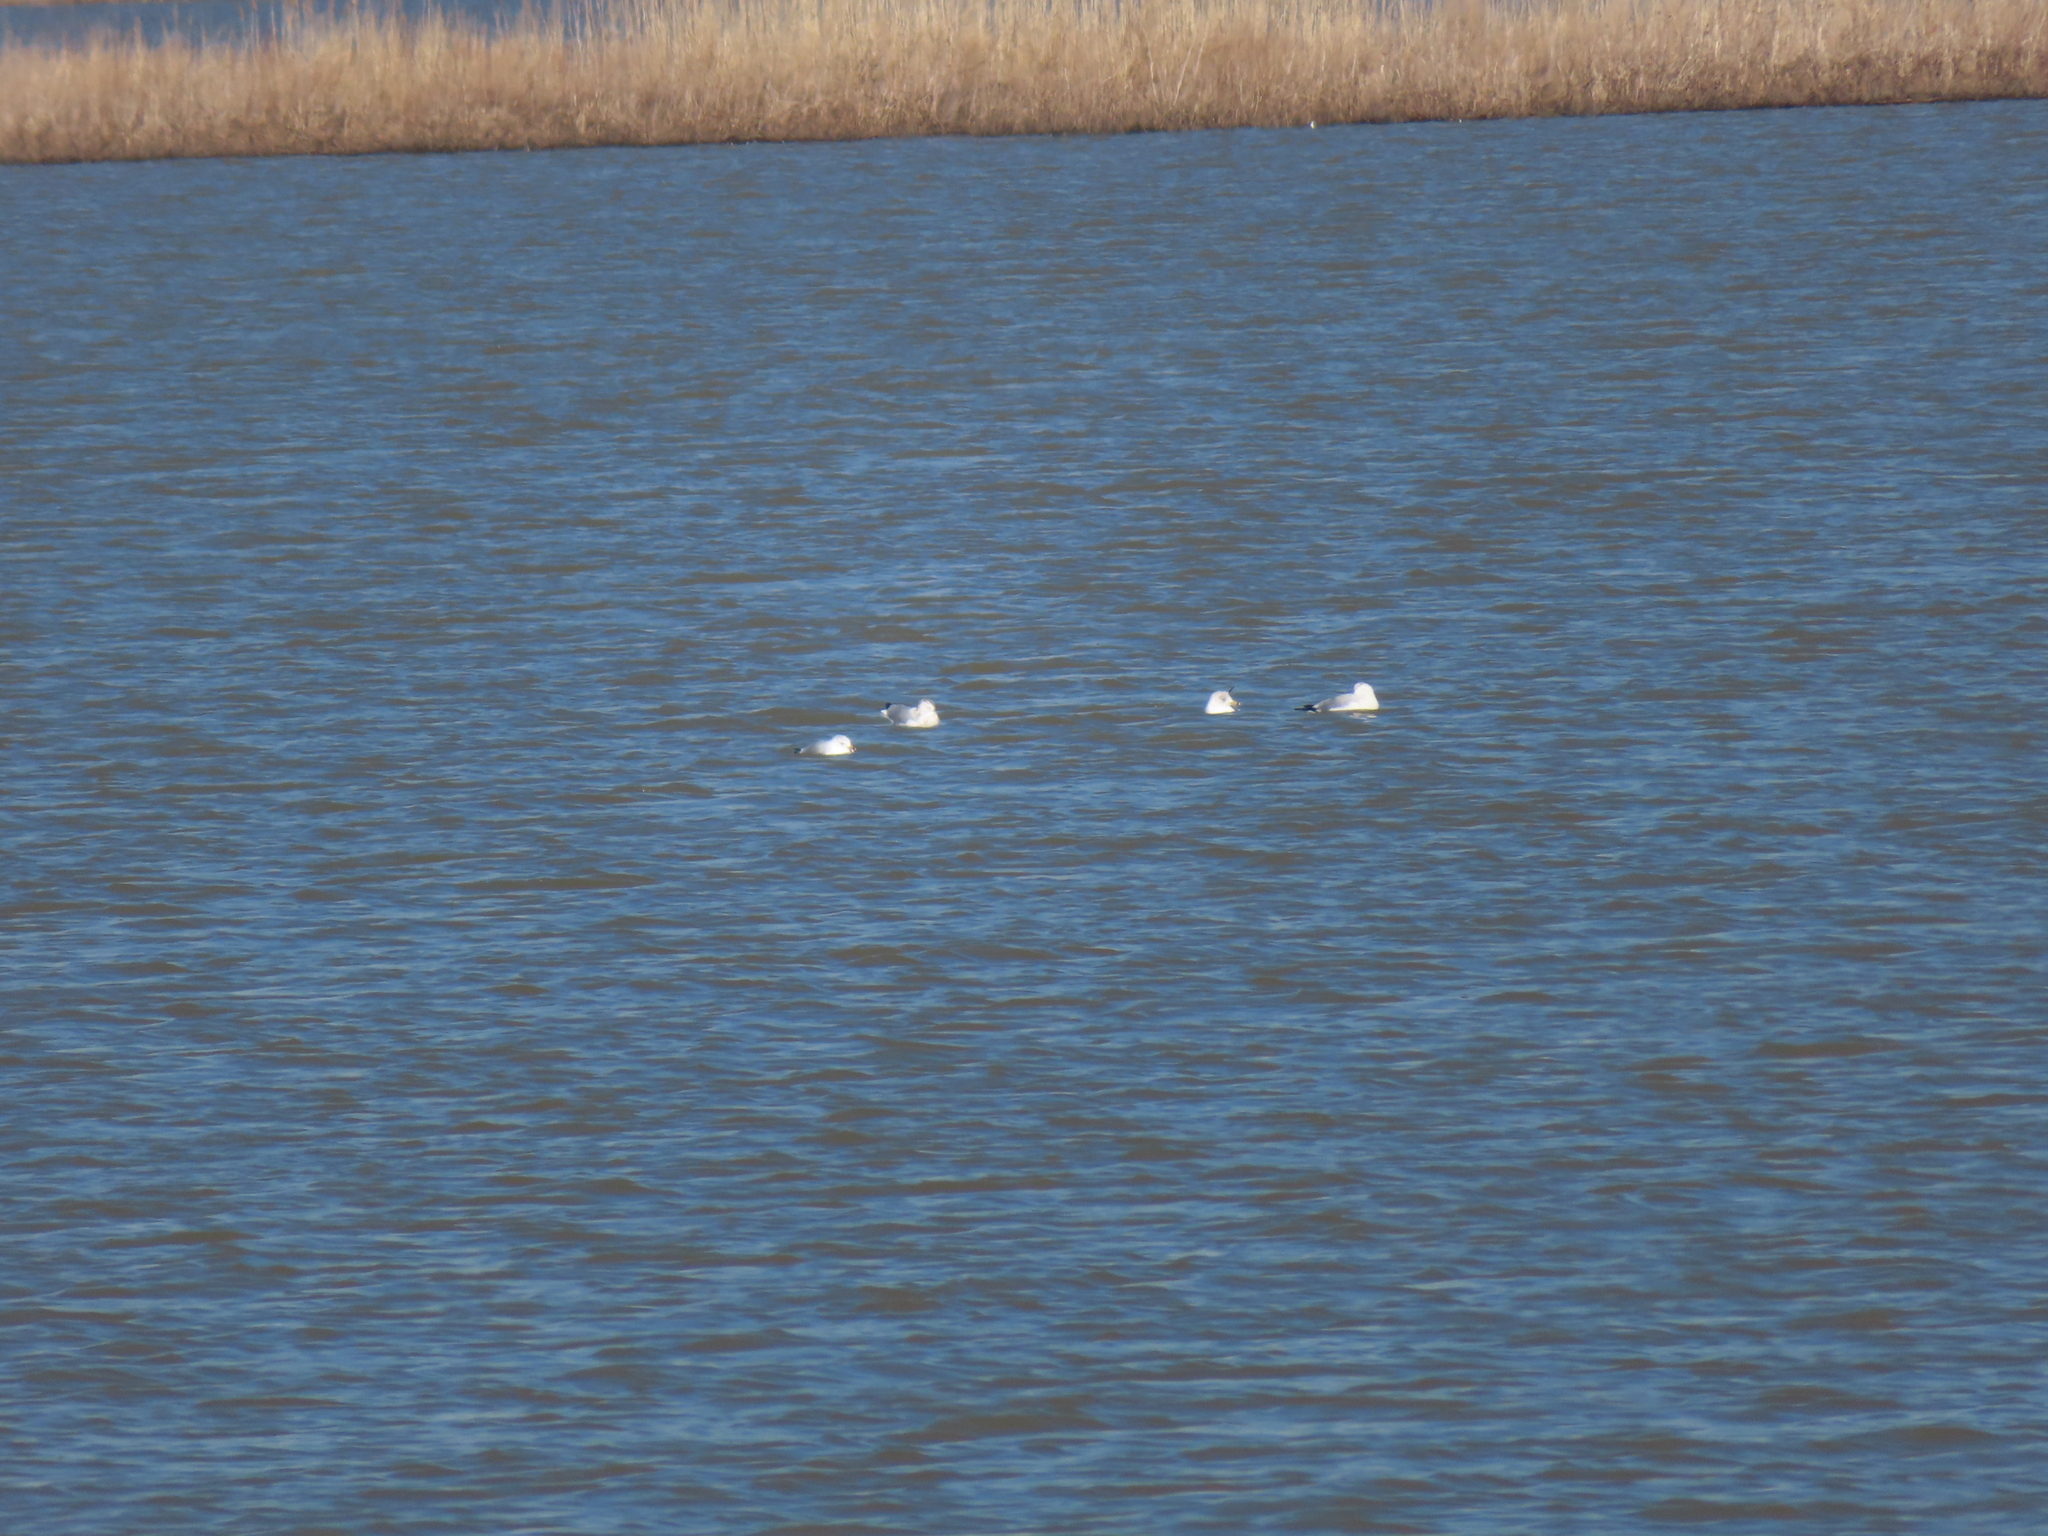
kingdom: Animalia
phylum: Chordata
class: Aves
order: Charadriiformes
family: Laridae
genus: Larus
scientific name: Larus delawarensis
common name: Ring-billed gull
